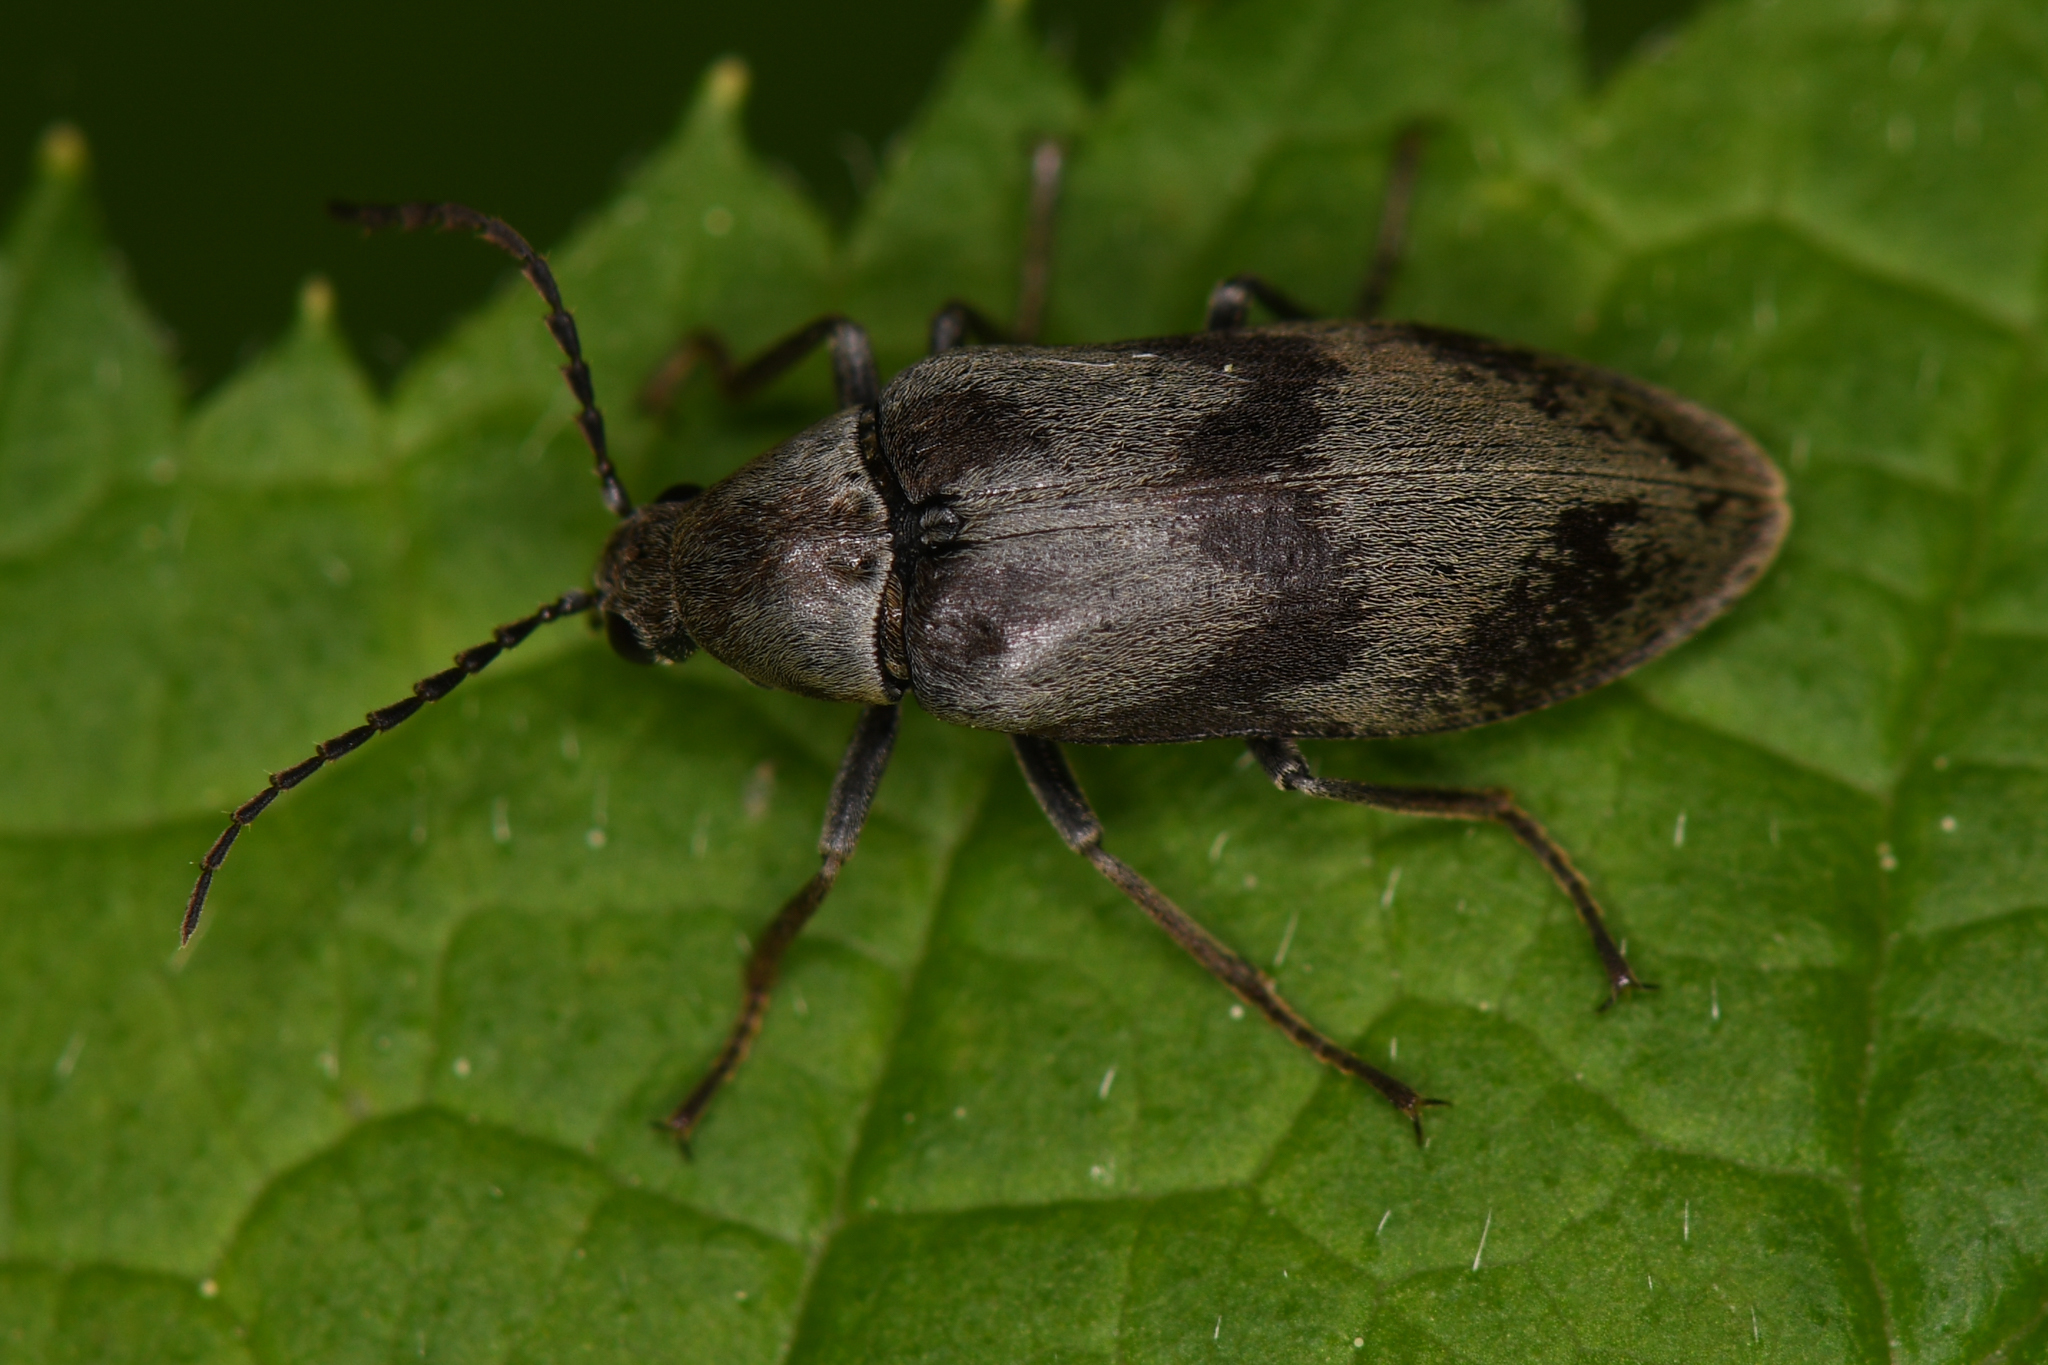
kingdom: Animalia
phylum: Arthropoda
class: Insecta
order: Coleoptera
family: Ptilodactylidae
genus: Araeopidius
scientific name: Araeopidius monachus
